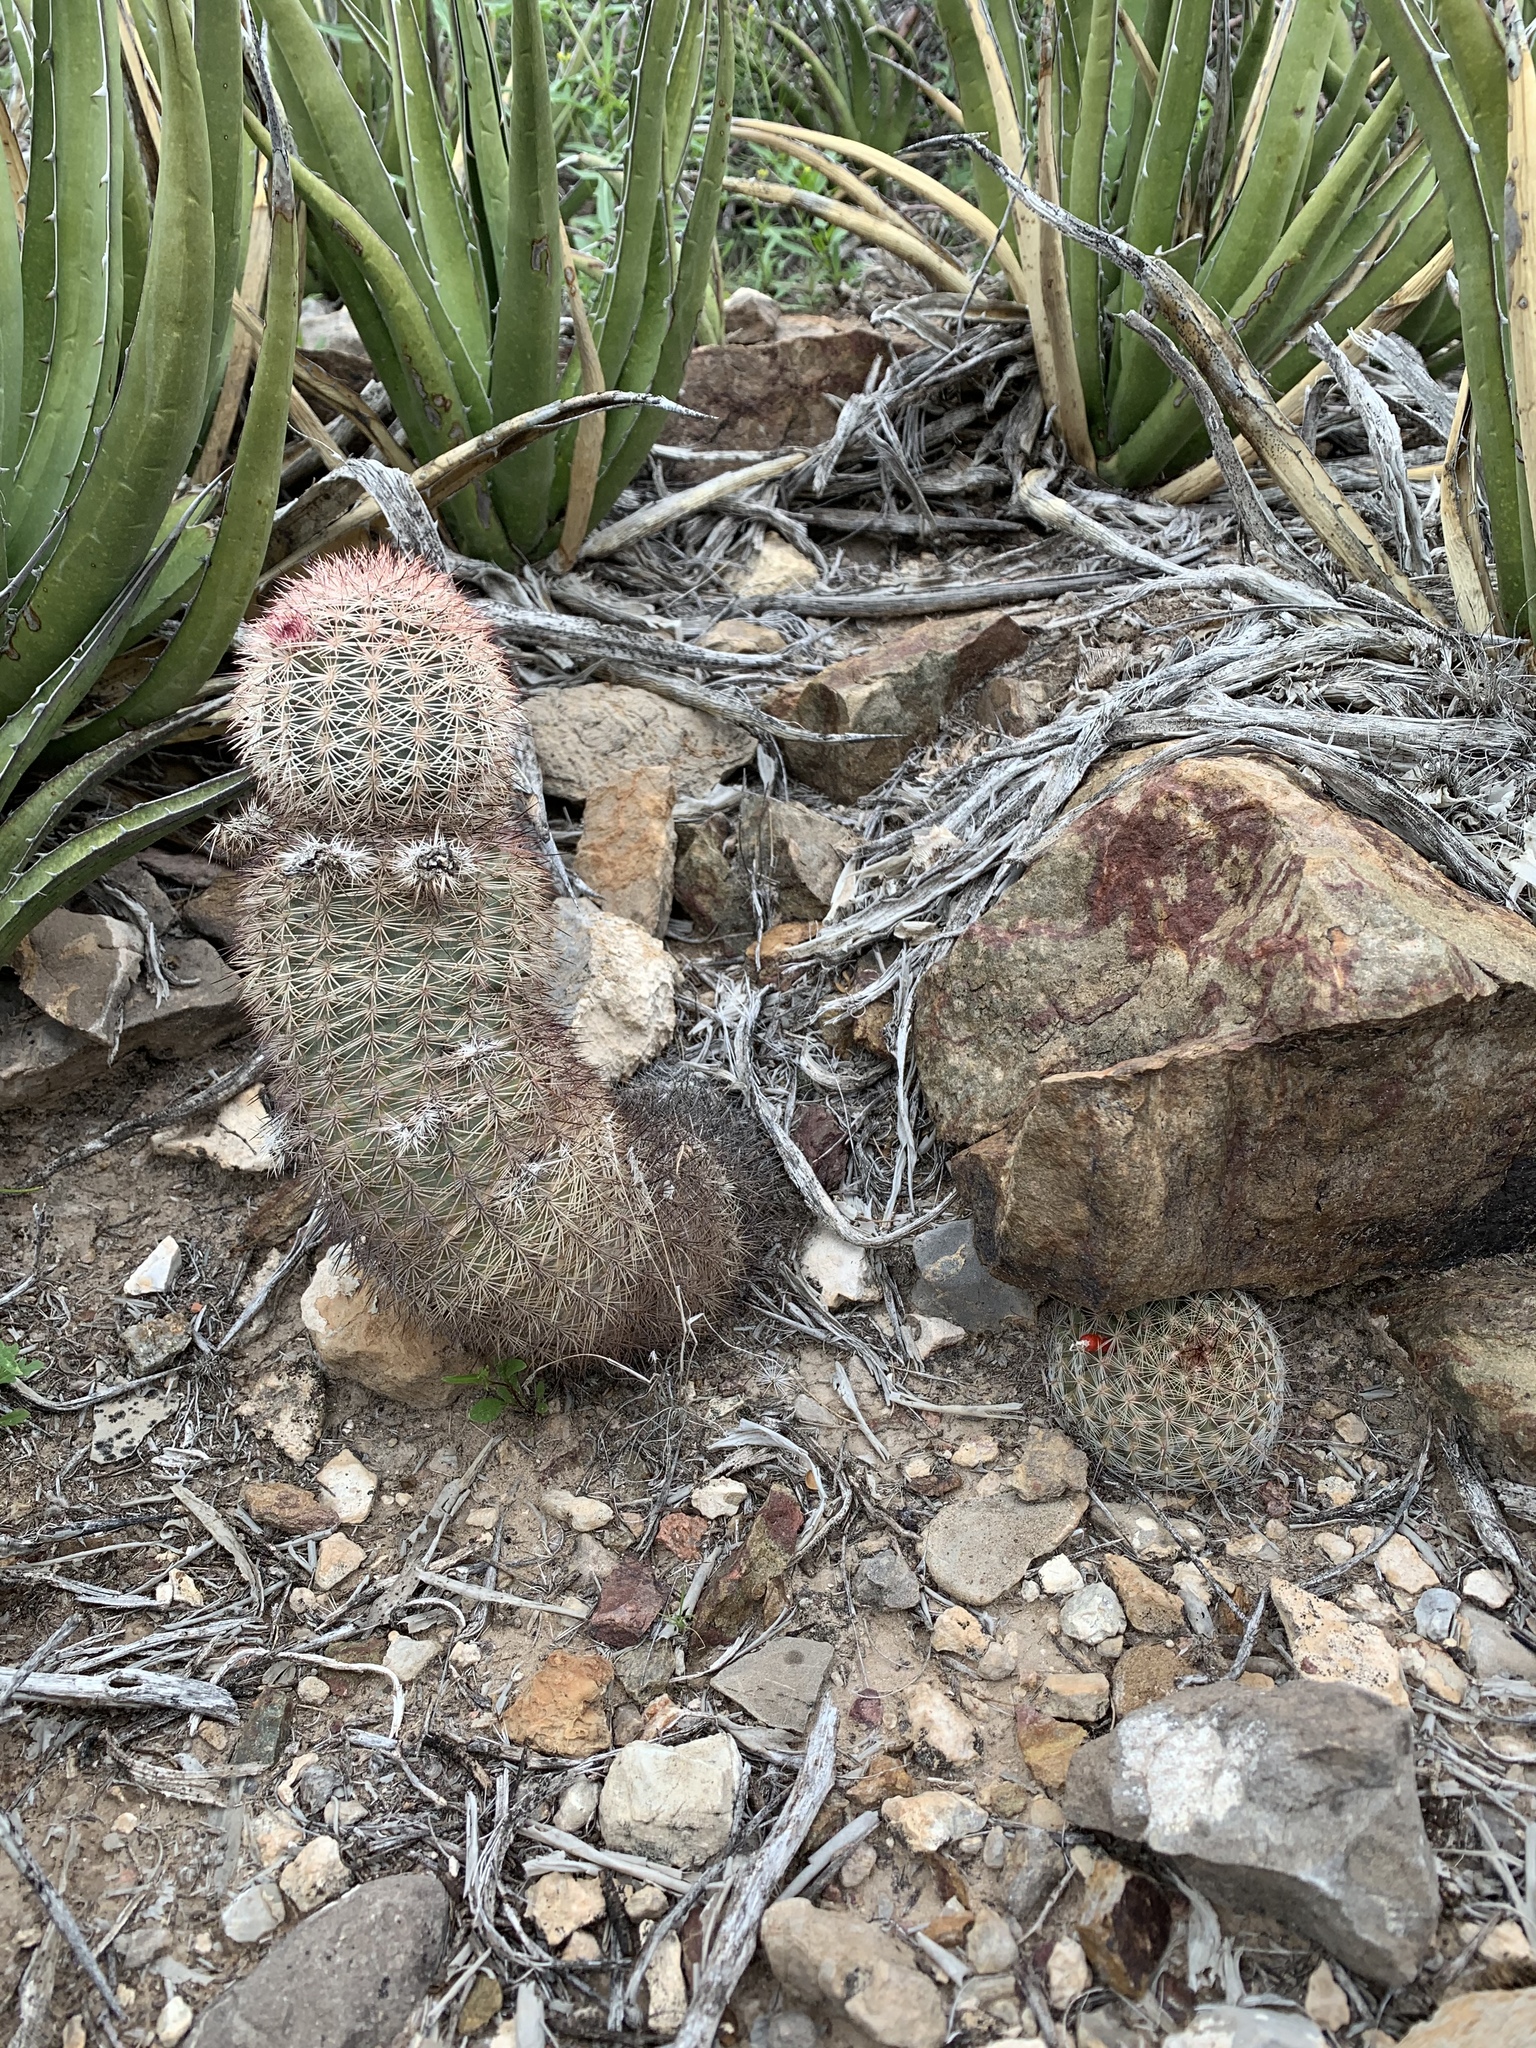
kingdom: Plantae
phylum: Tracheophyta
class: Magnoliopsida
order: Caryophyllales
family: Cactaceae
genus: Echinocereus
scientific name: Echinocereus dasyacanthus
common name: Spiny hedgehog cactus
